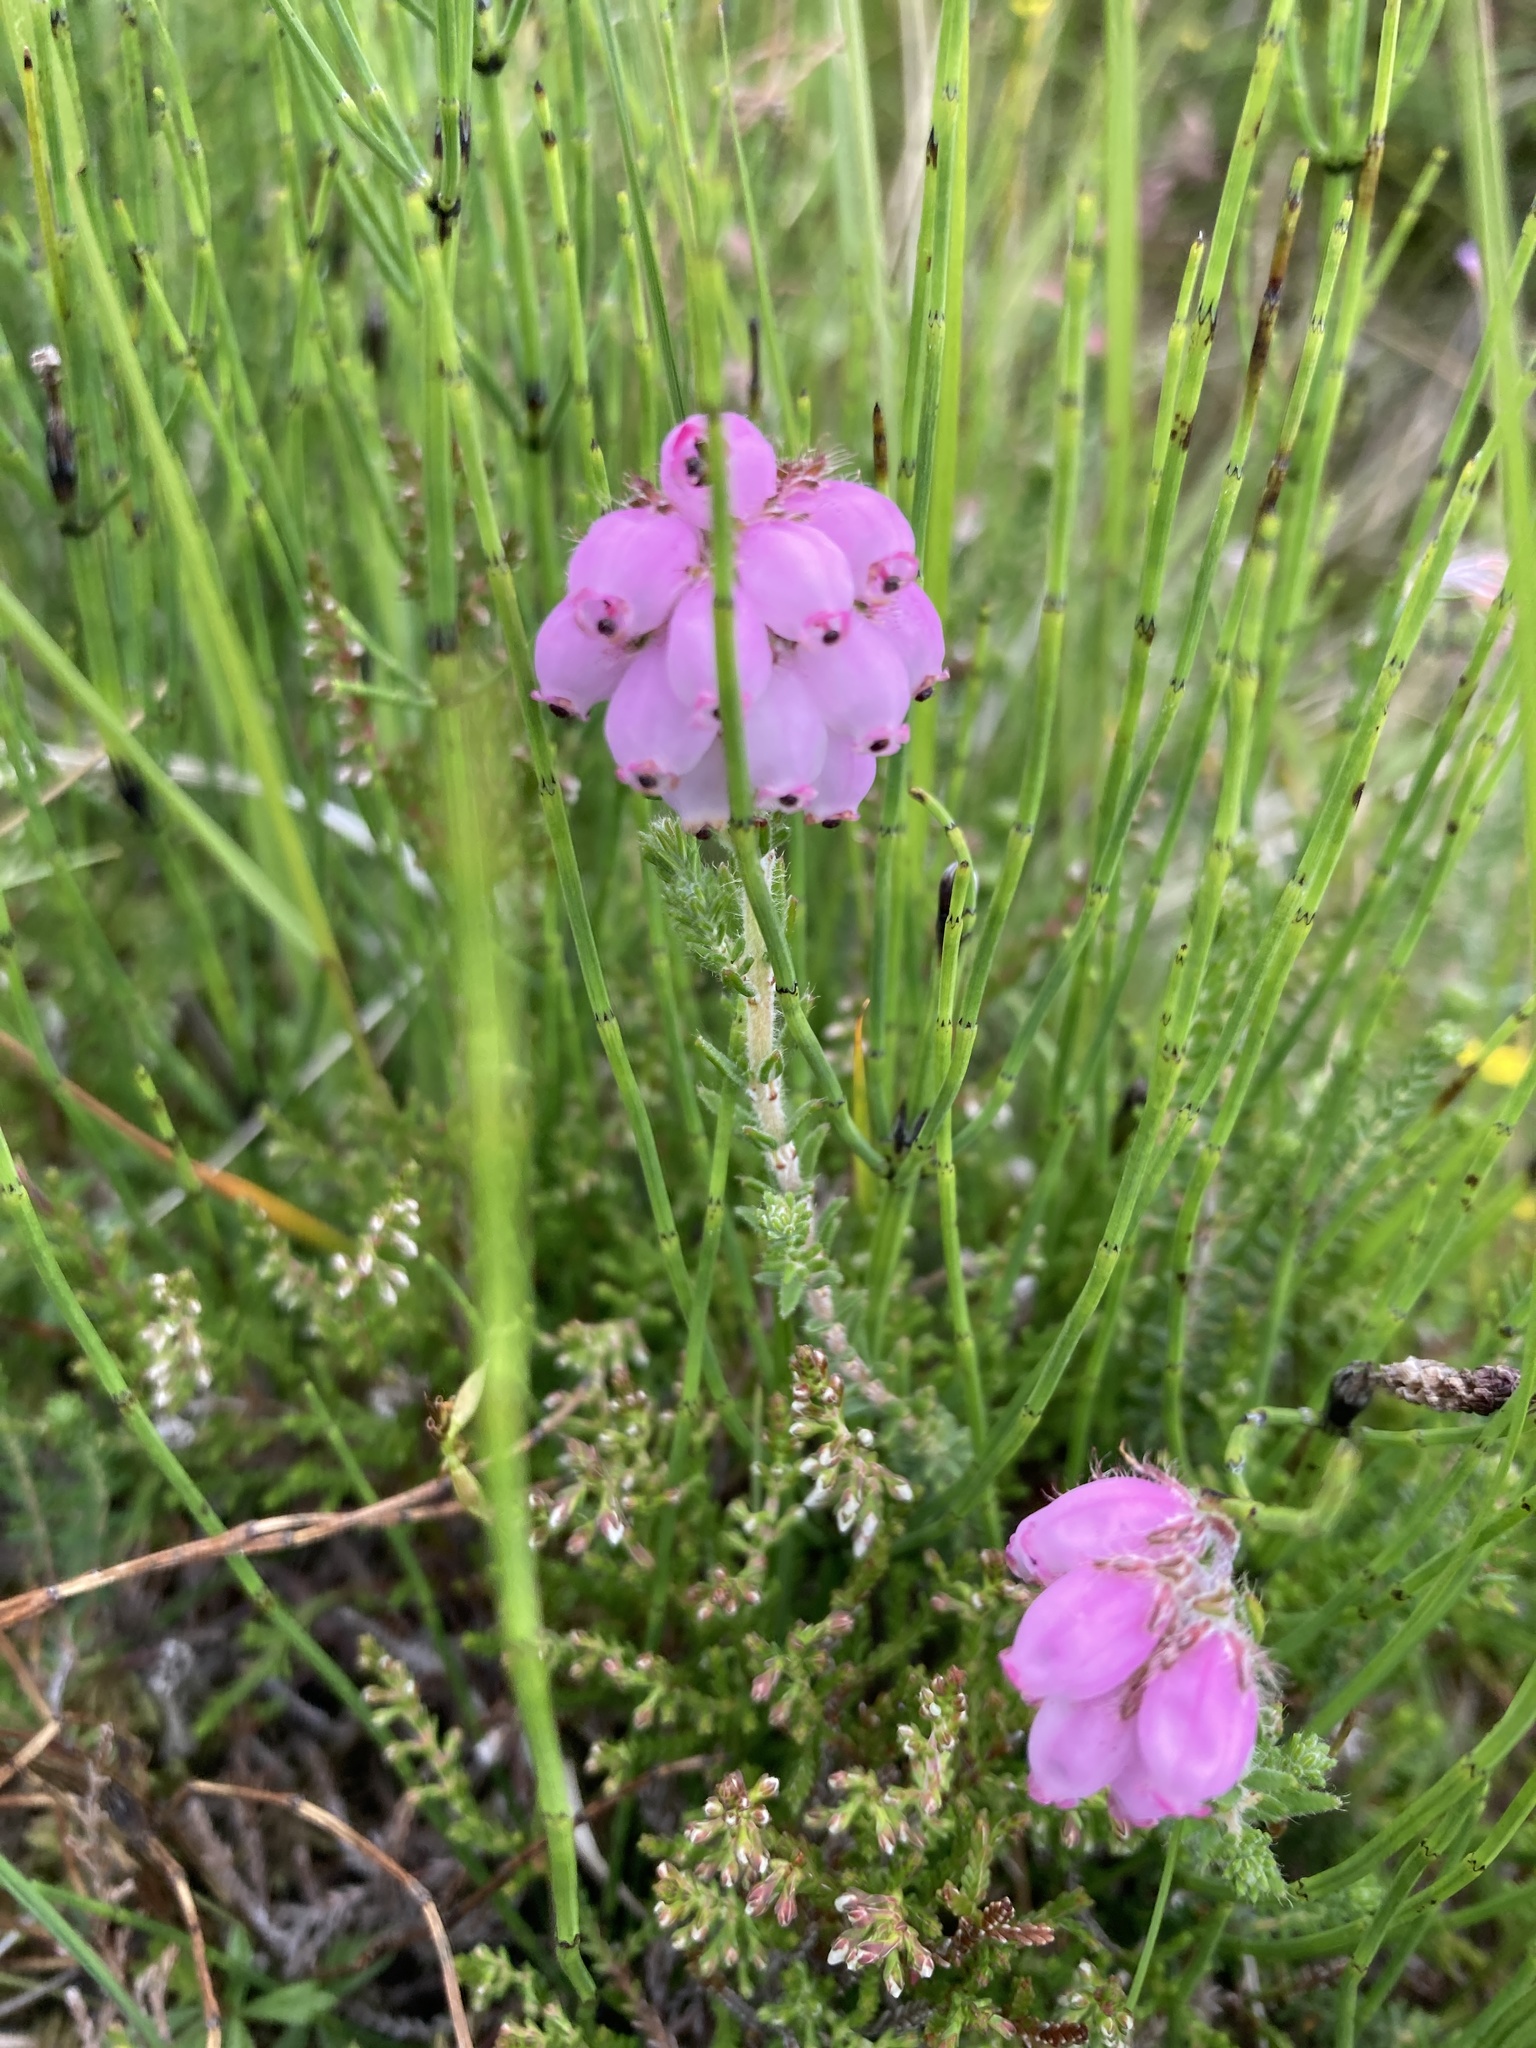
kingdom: Plantae
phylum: Tracheophyta
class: Magnoliopsida
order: Ericales
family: Ericaceae
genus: Erica
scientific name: Erica tetralix
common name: Cross-leaved heath
